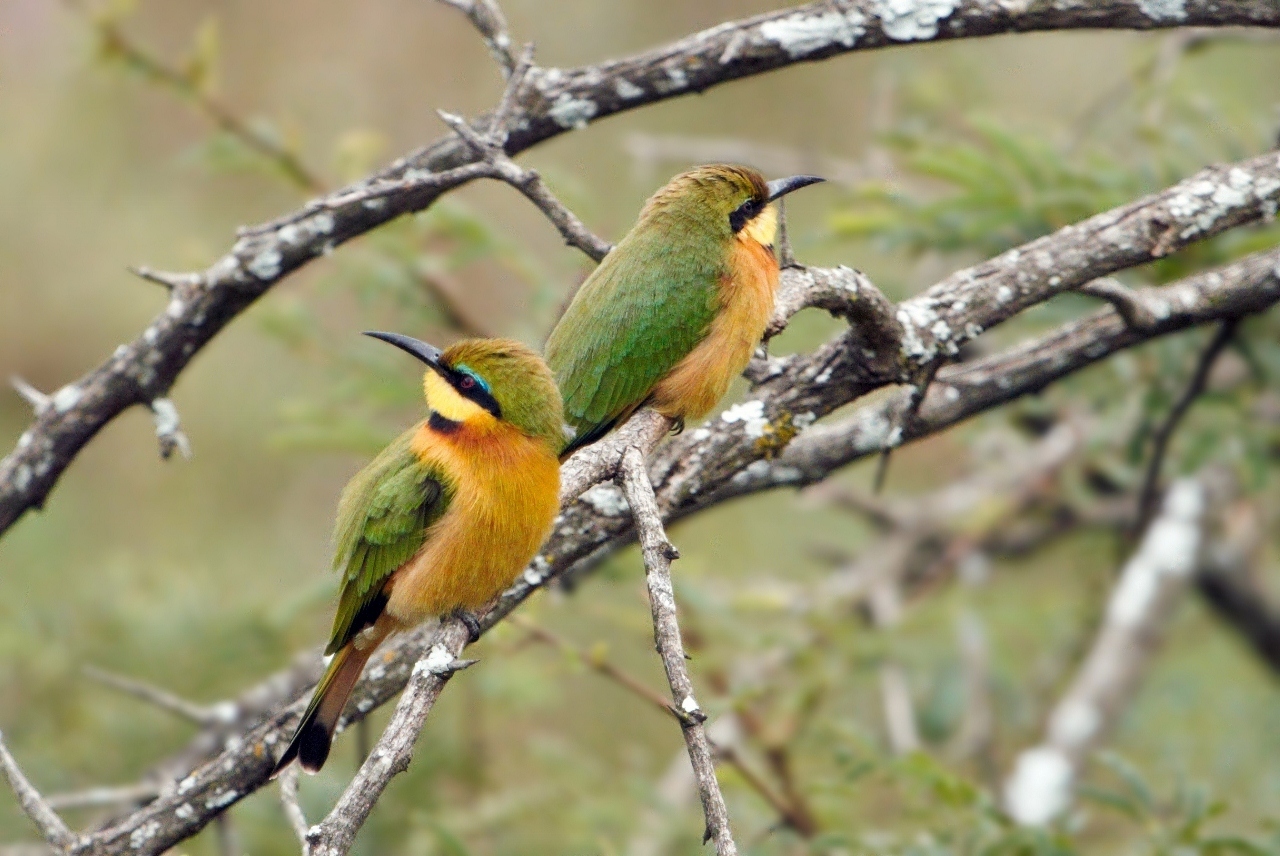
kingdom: Animalia
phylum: Chordata
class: Aves
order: Coraciiformes
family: Meropidae
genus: Merops
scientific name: Merops pusillus
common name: Little bee-eater
